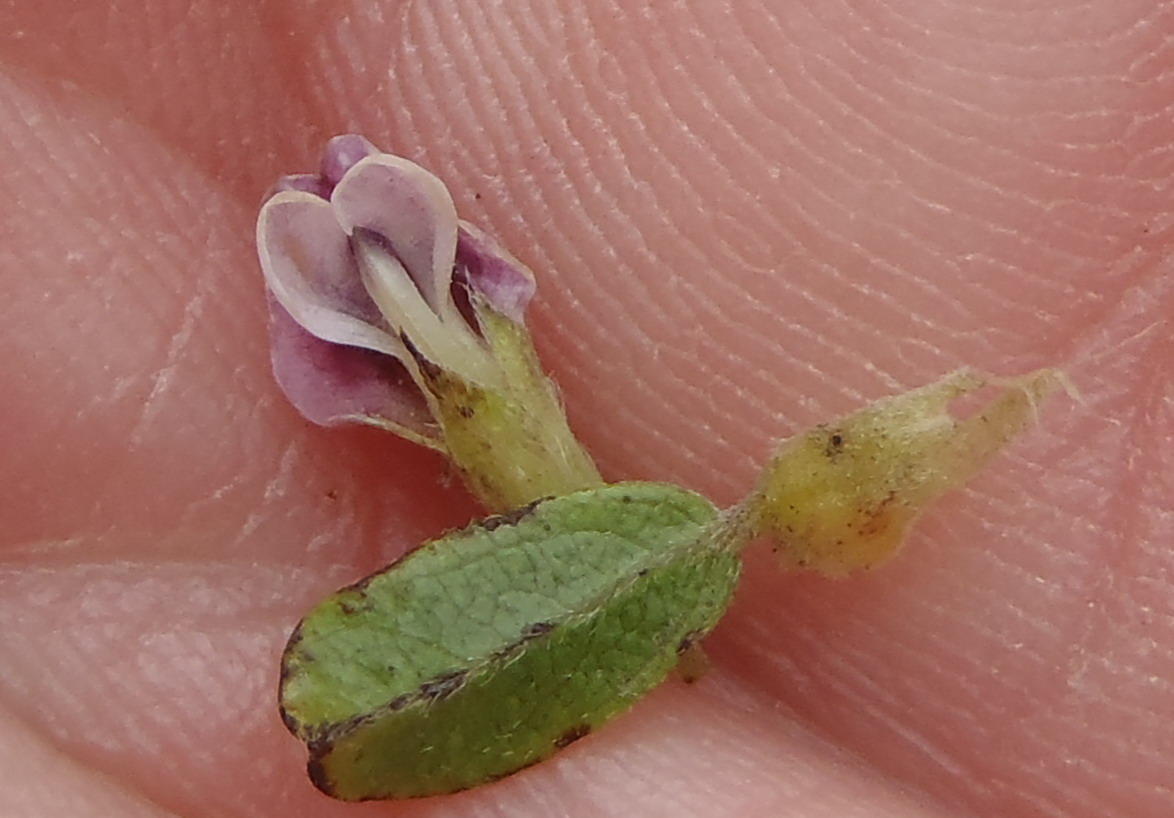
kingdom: Plantae
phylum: Tracheophyta
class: Magnoliopsida
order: Fabales
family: Fabaceae
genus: Psoralea
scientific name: Psoralea stachyera
